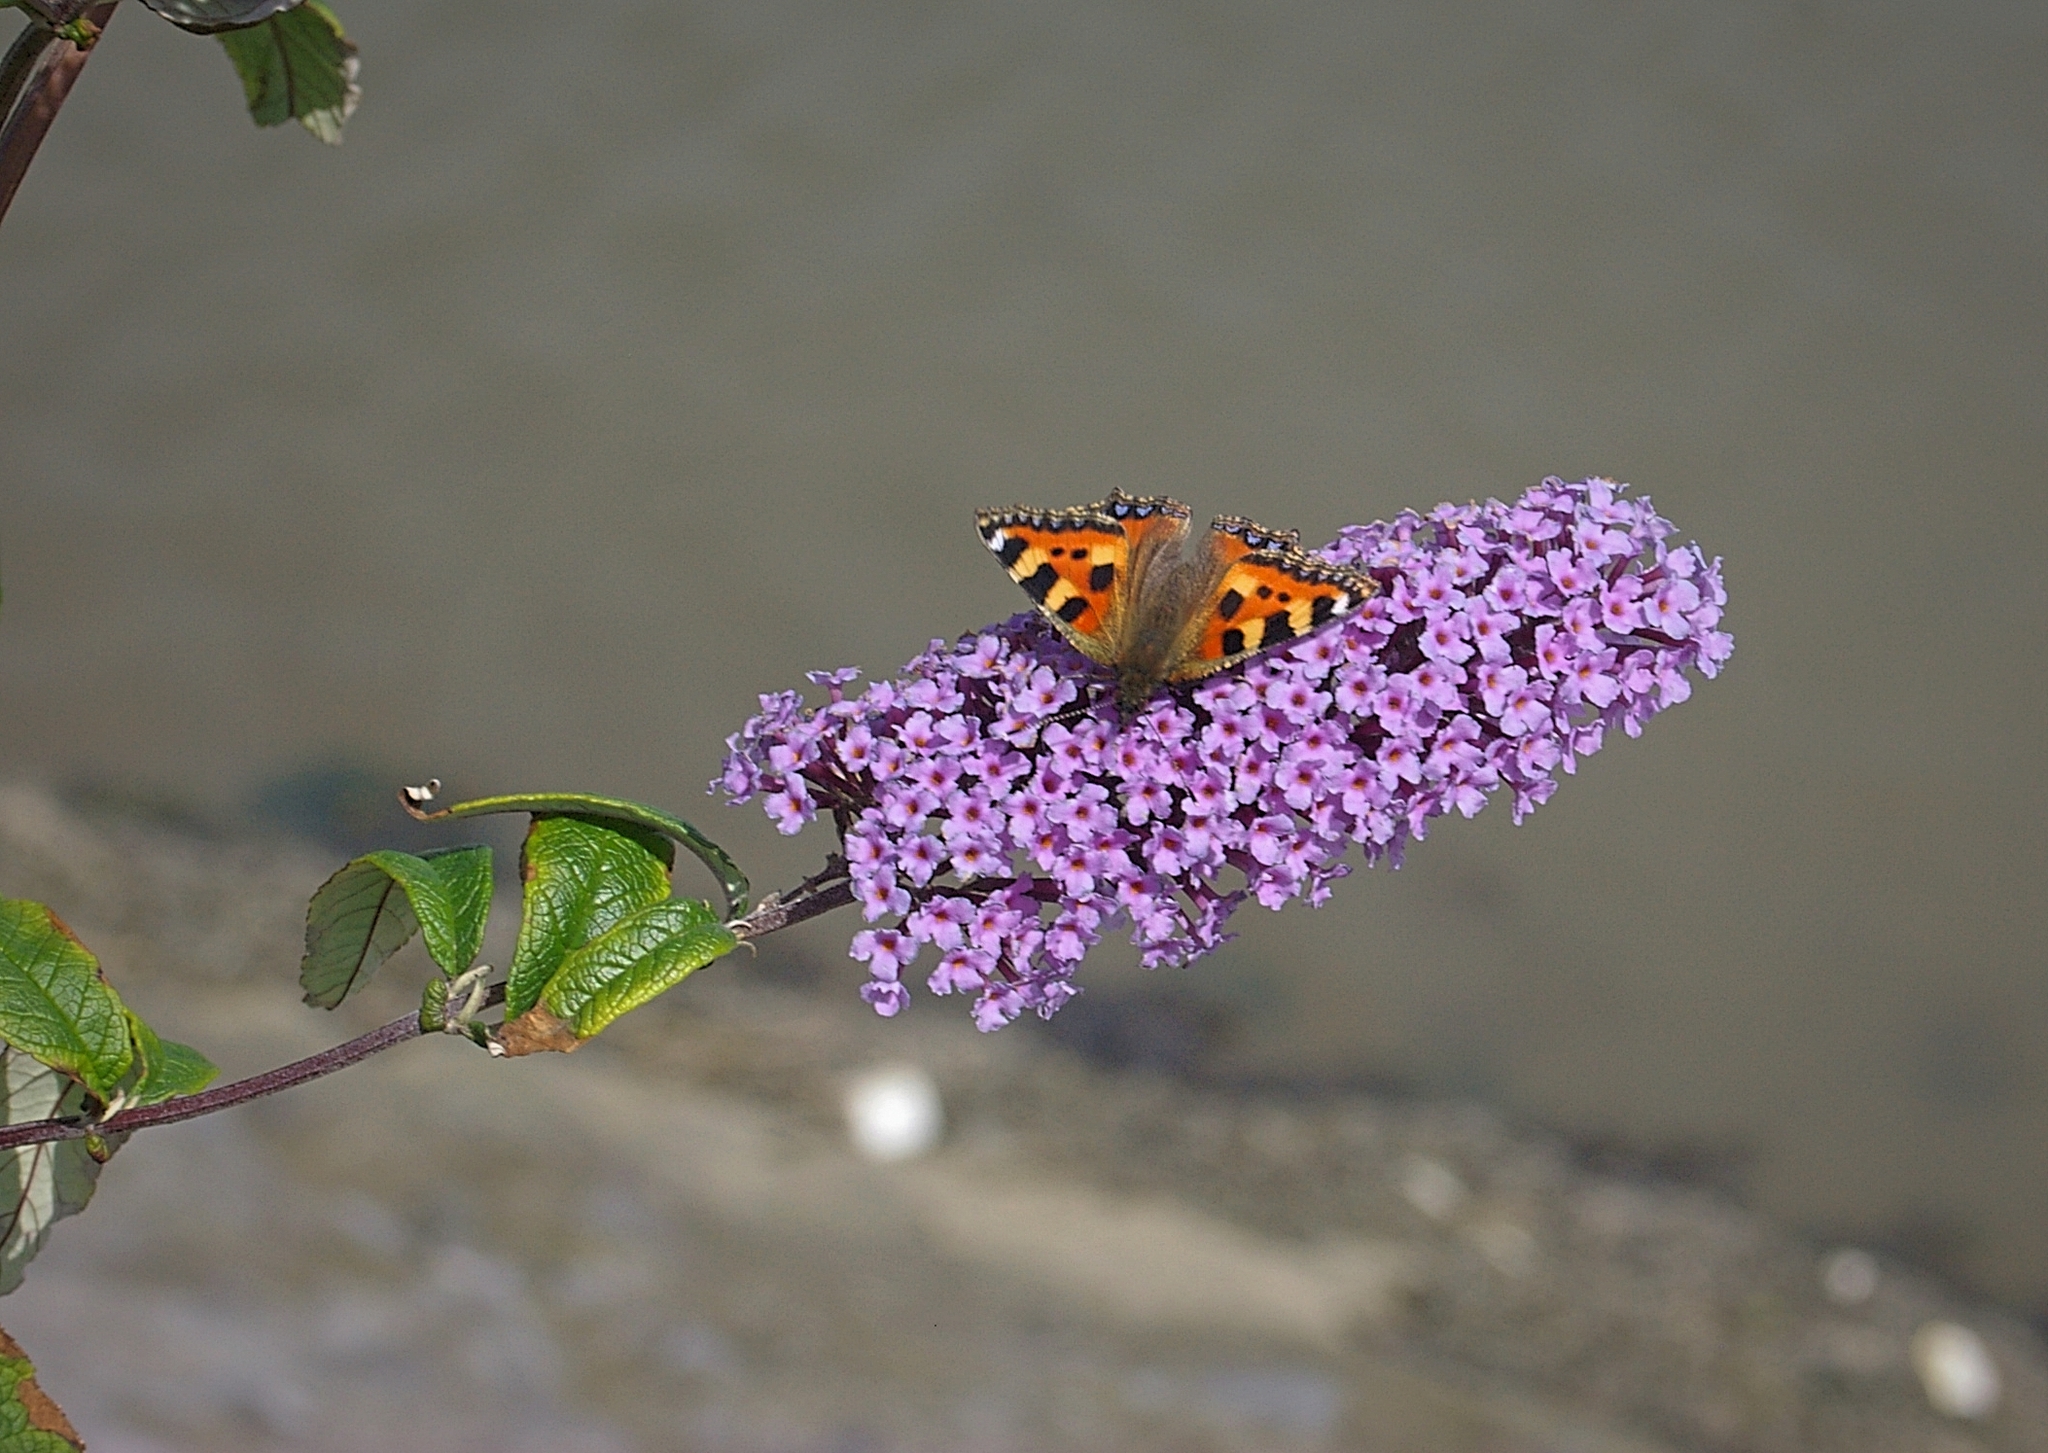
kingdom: Animalia
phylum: Arthropoda
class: Insecta
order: Lepidoptera
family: Nymphalidae
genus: Aglais
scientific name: Aglais urticae
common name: Small tortoiseshell
